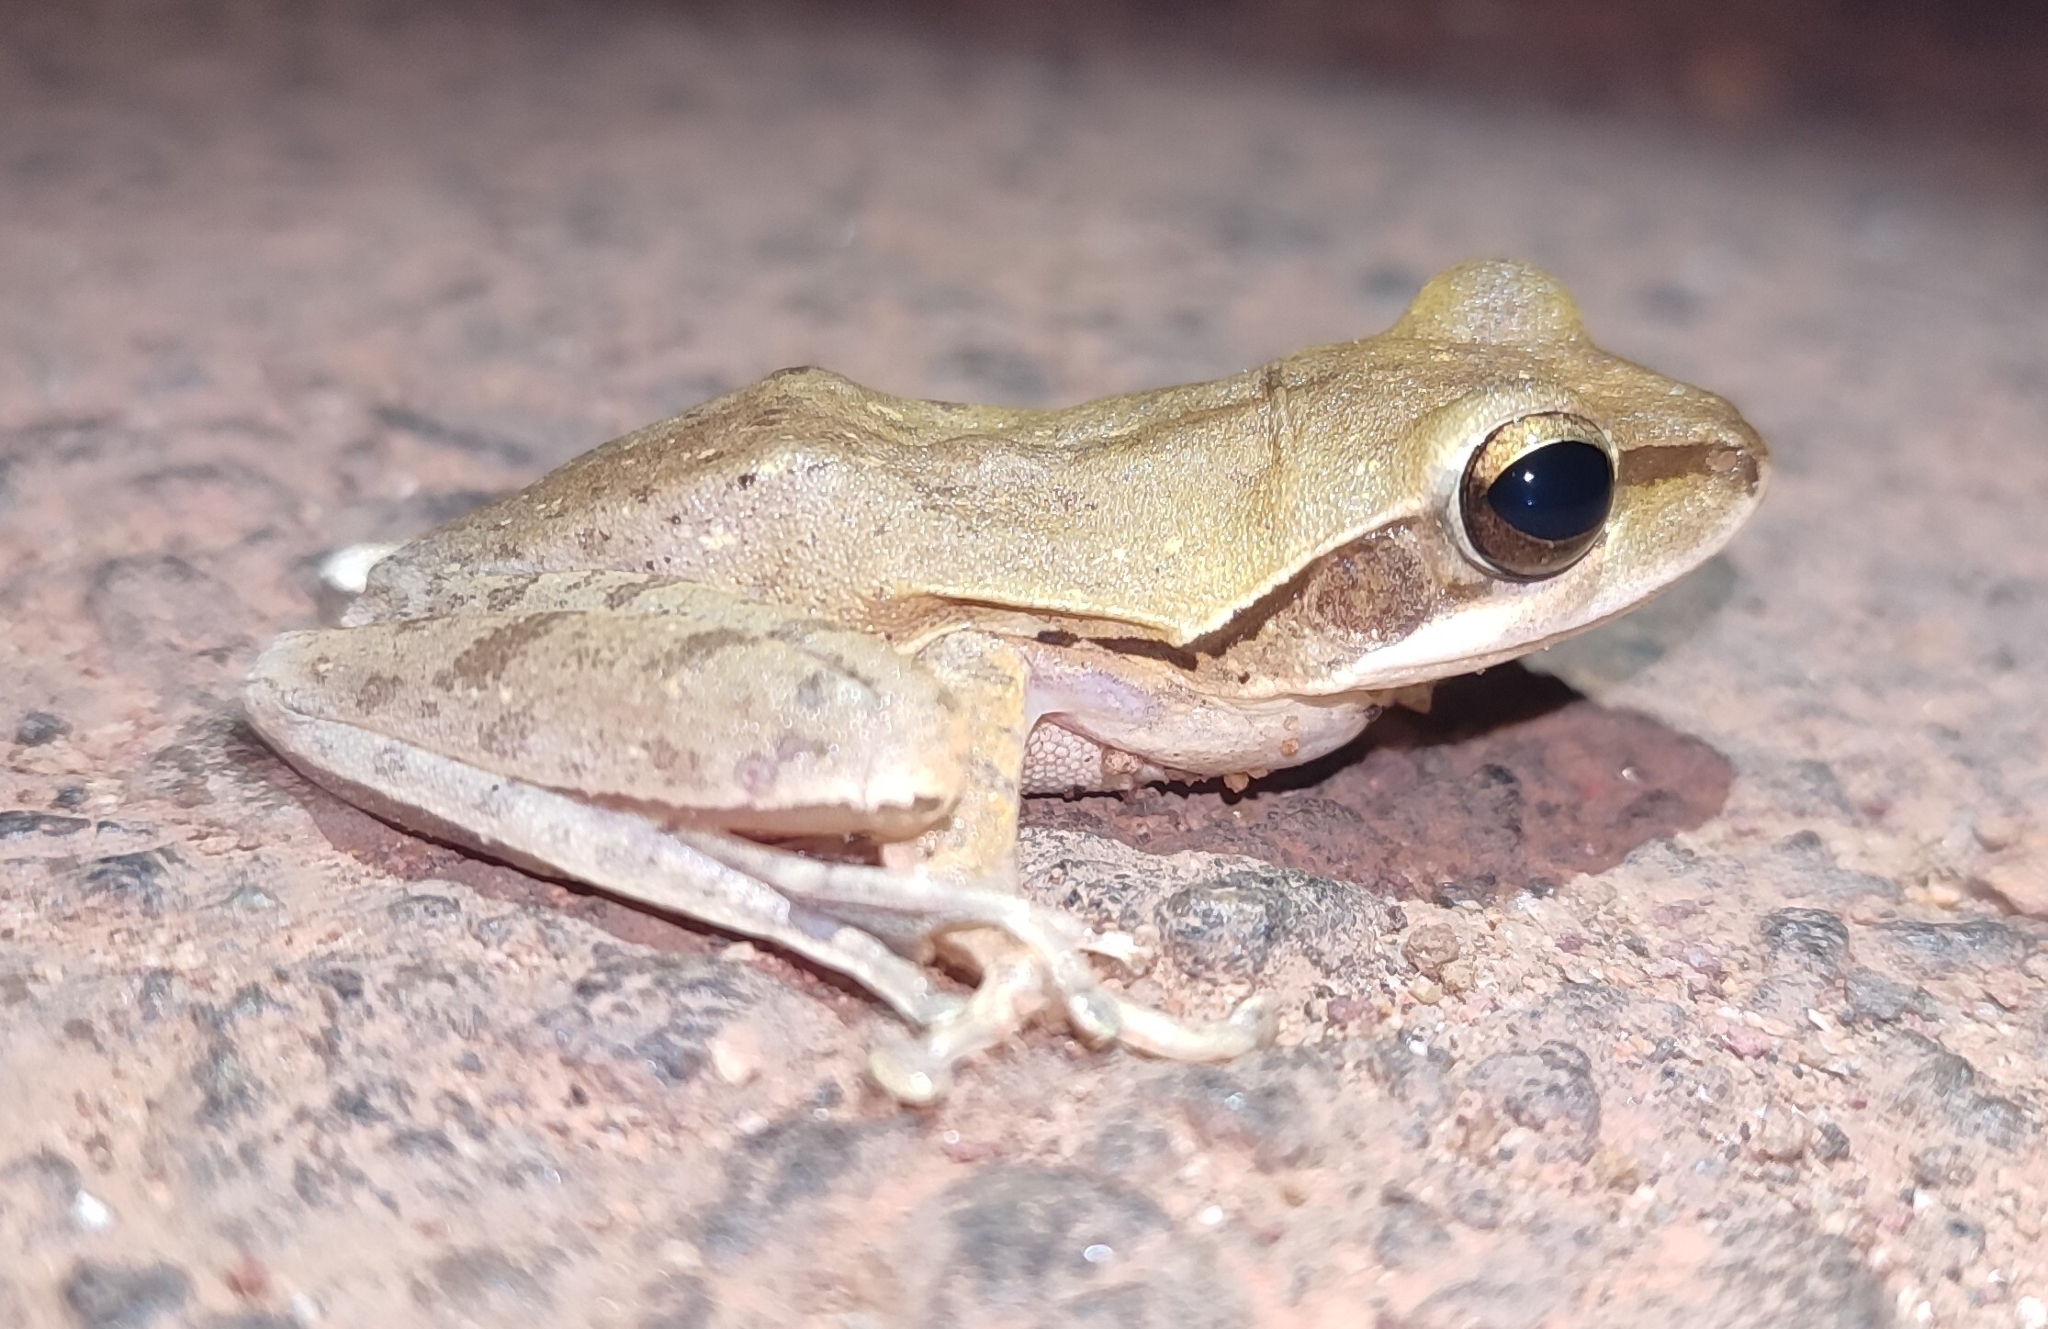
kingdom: Animalia
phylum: Chordata
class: Amphibia
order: Anura
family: Rhacophoridae
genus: Polypedates
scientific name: Polypedates maculatus
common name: Himalayan tree frog
